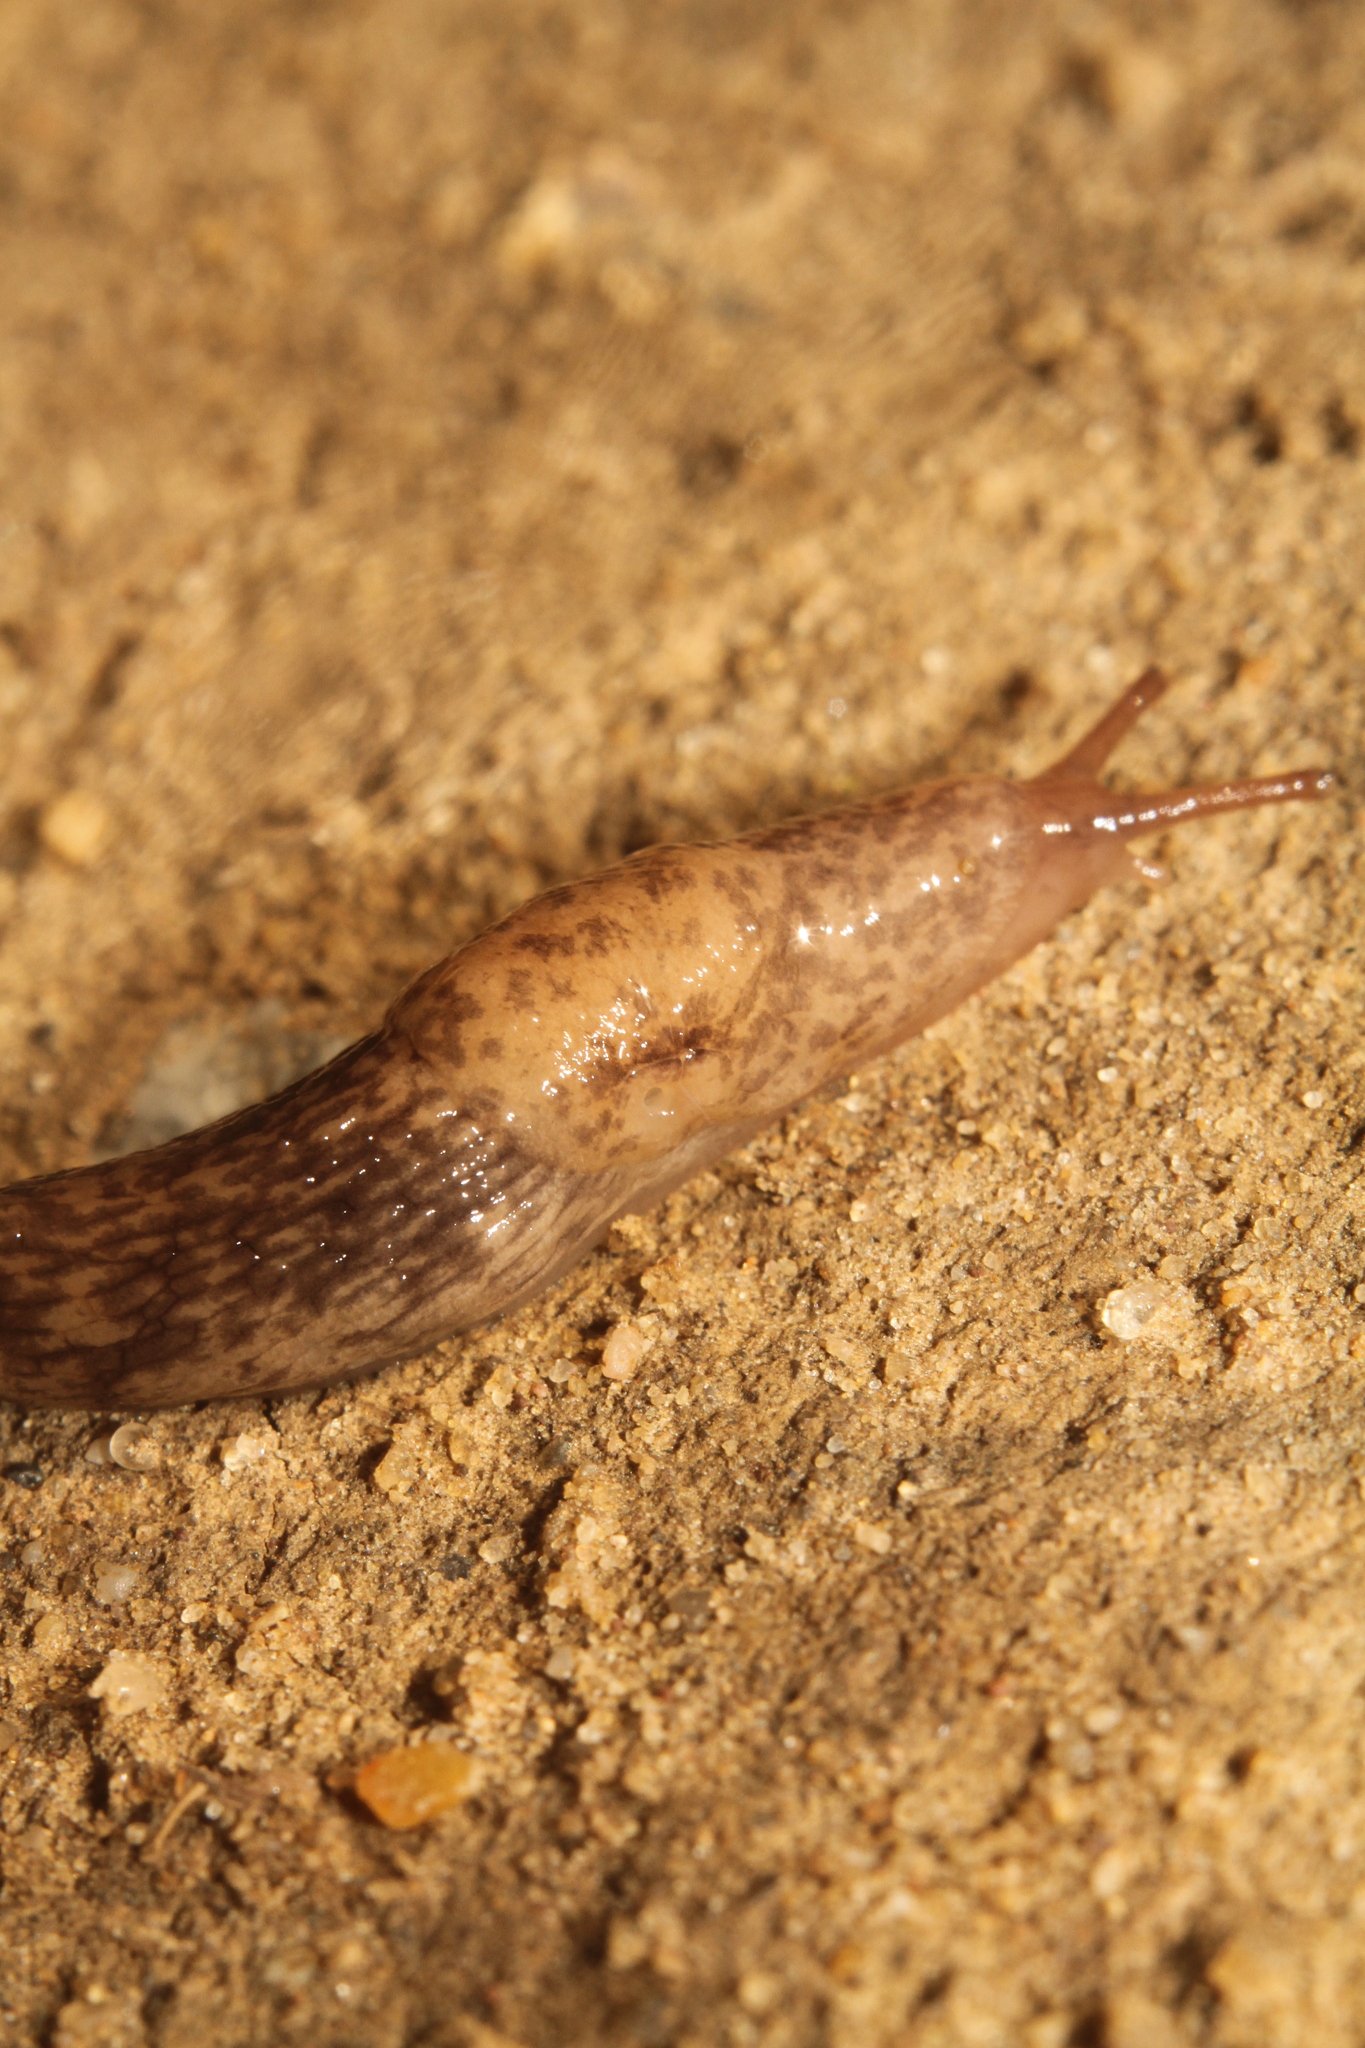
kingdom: Animalia
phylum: Mollusca
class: Gastropoda
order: Stylommatophora
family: Agriolimacidae
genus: Deroceras
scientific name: Deroceras reticulatum
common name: Gray field slug
